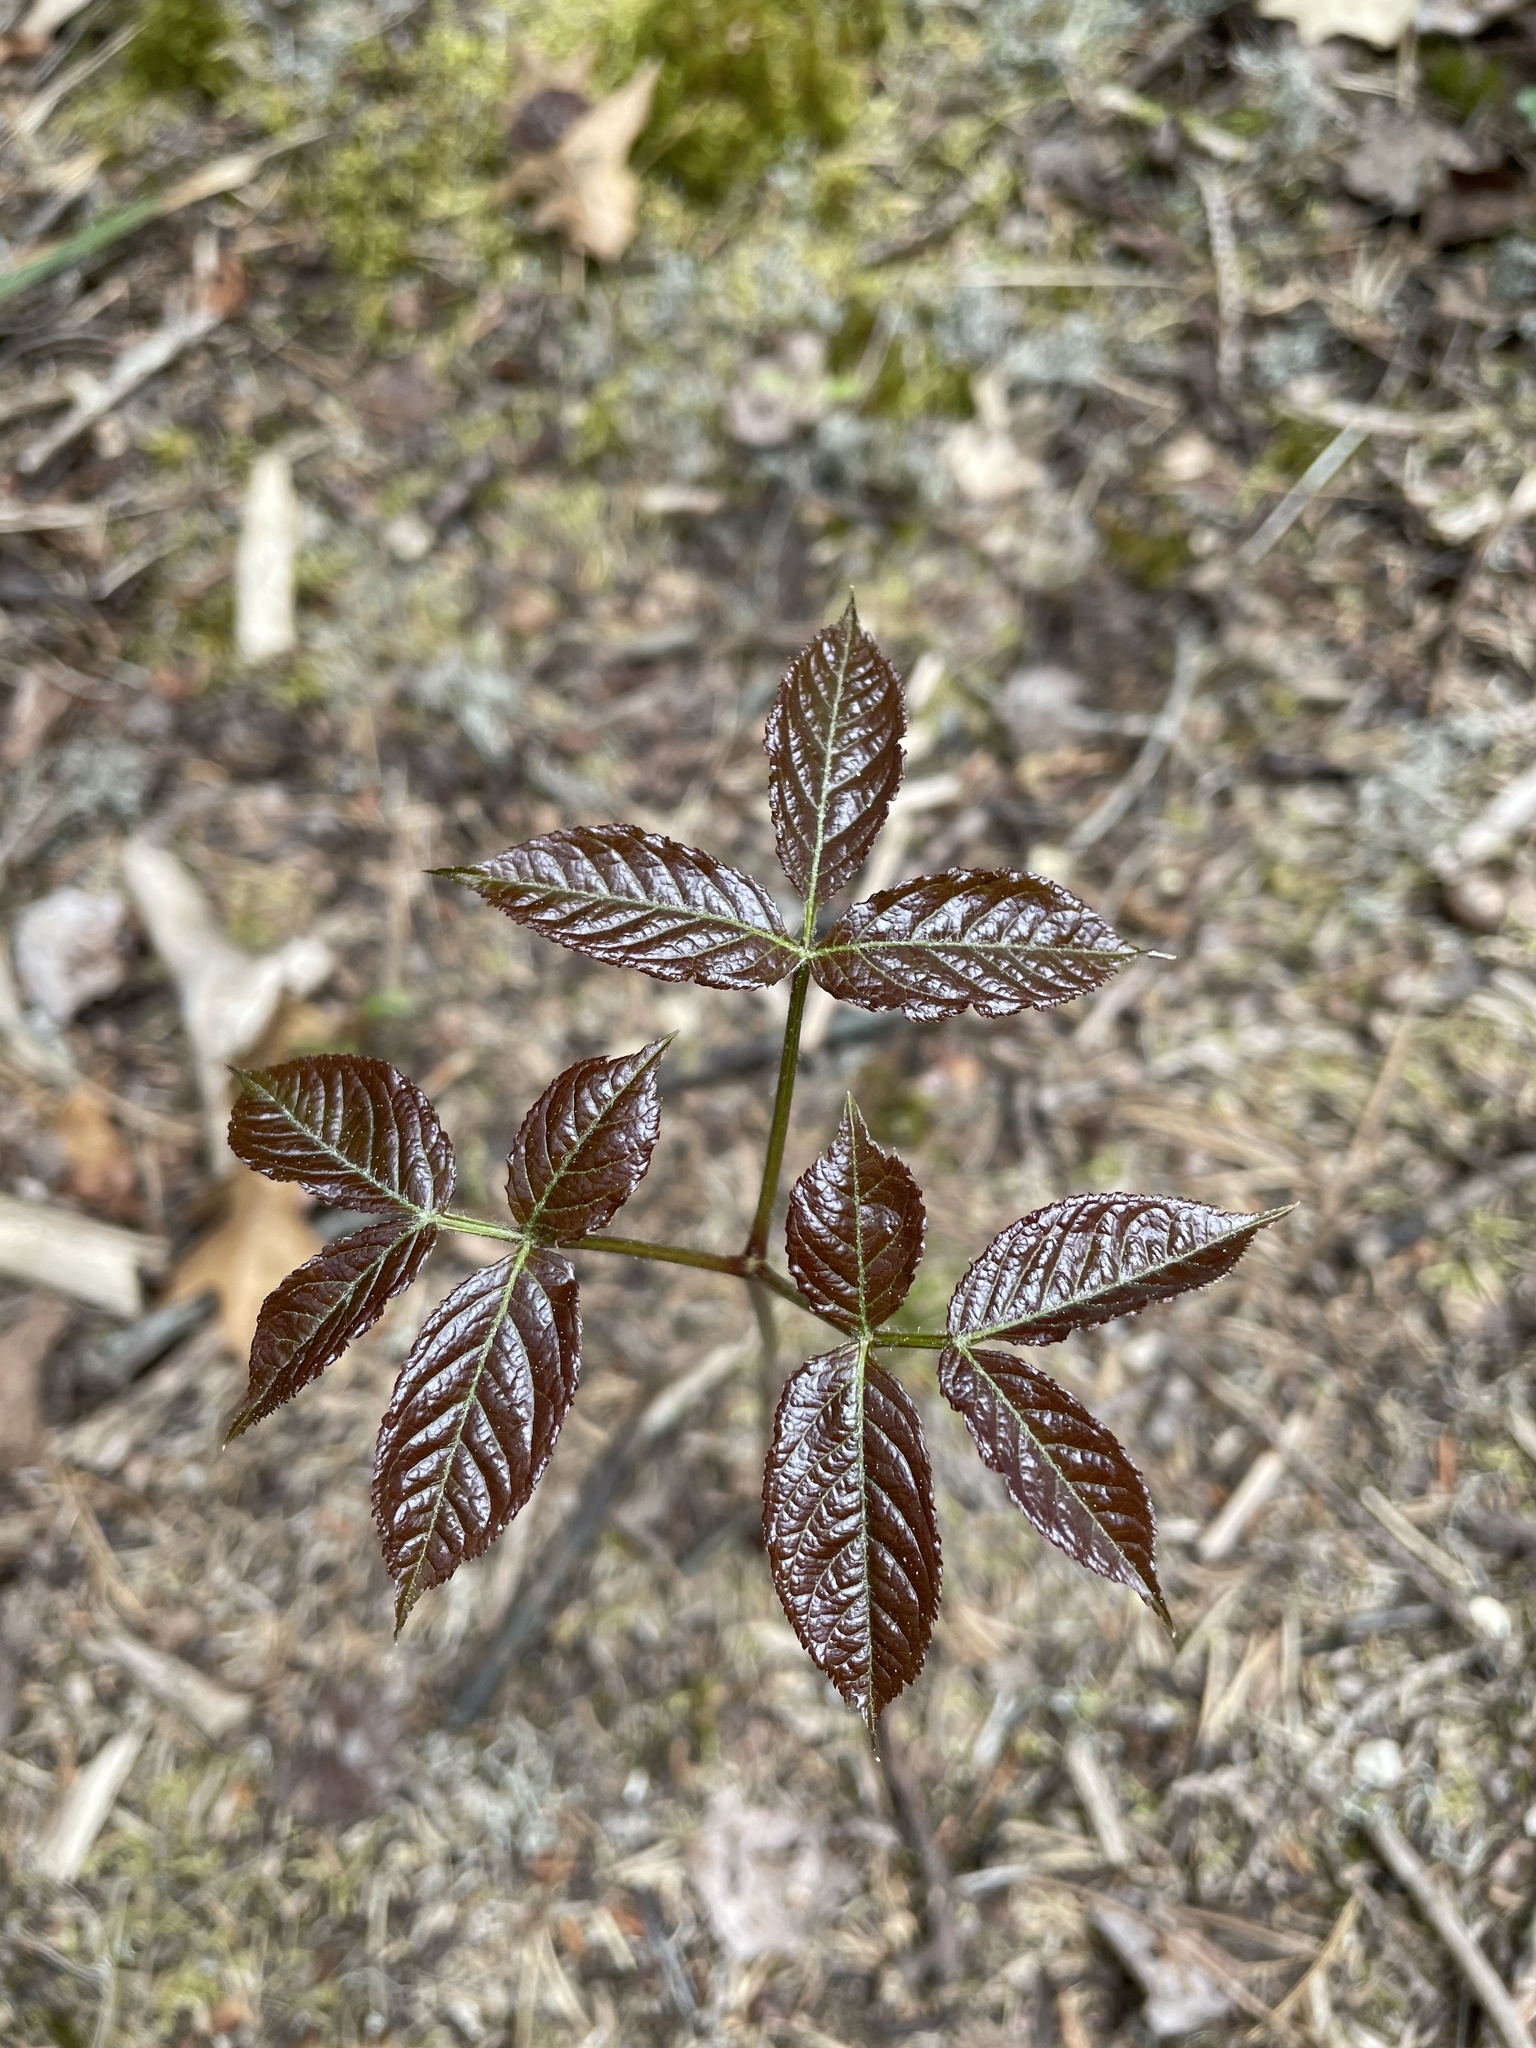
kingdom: Plantae
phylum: Tracheophyta
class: Magnoliopsida
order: Apiales
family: Araliaceae
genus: Aralia
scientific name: Aralia nudicaulis
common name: Wild sarsaparilla
